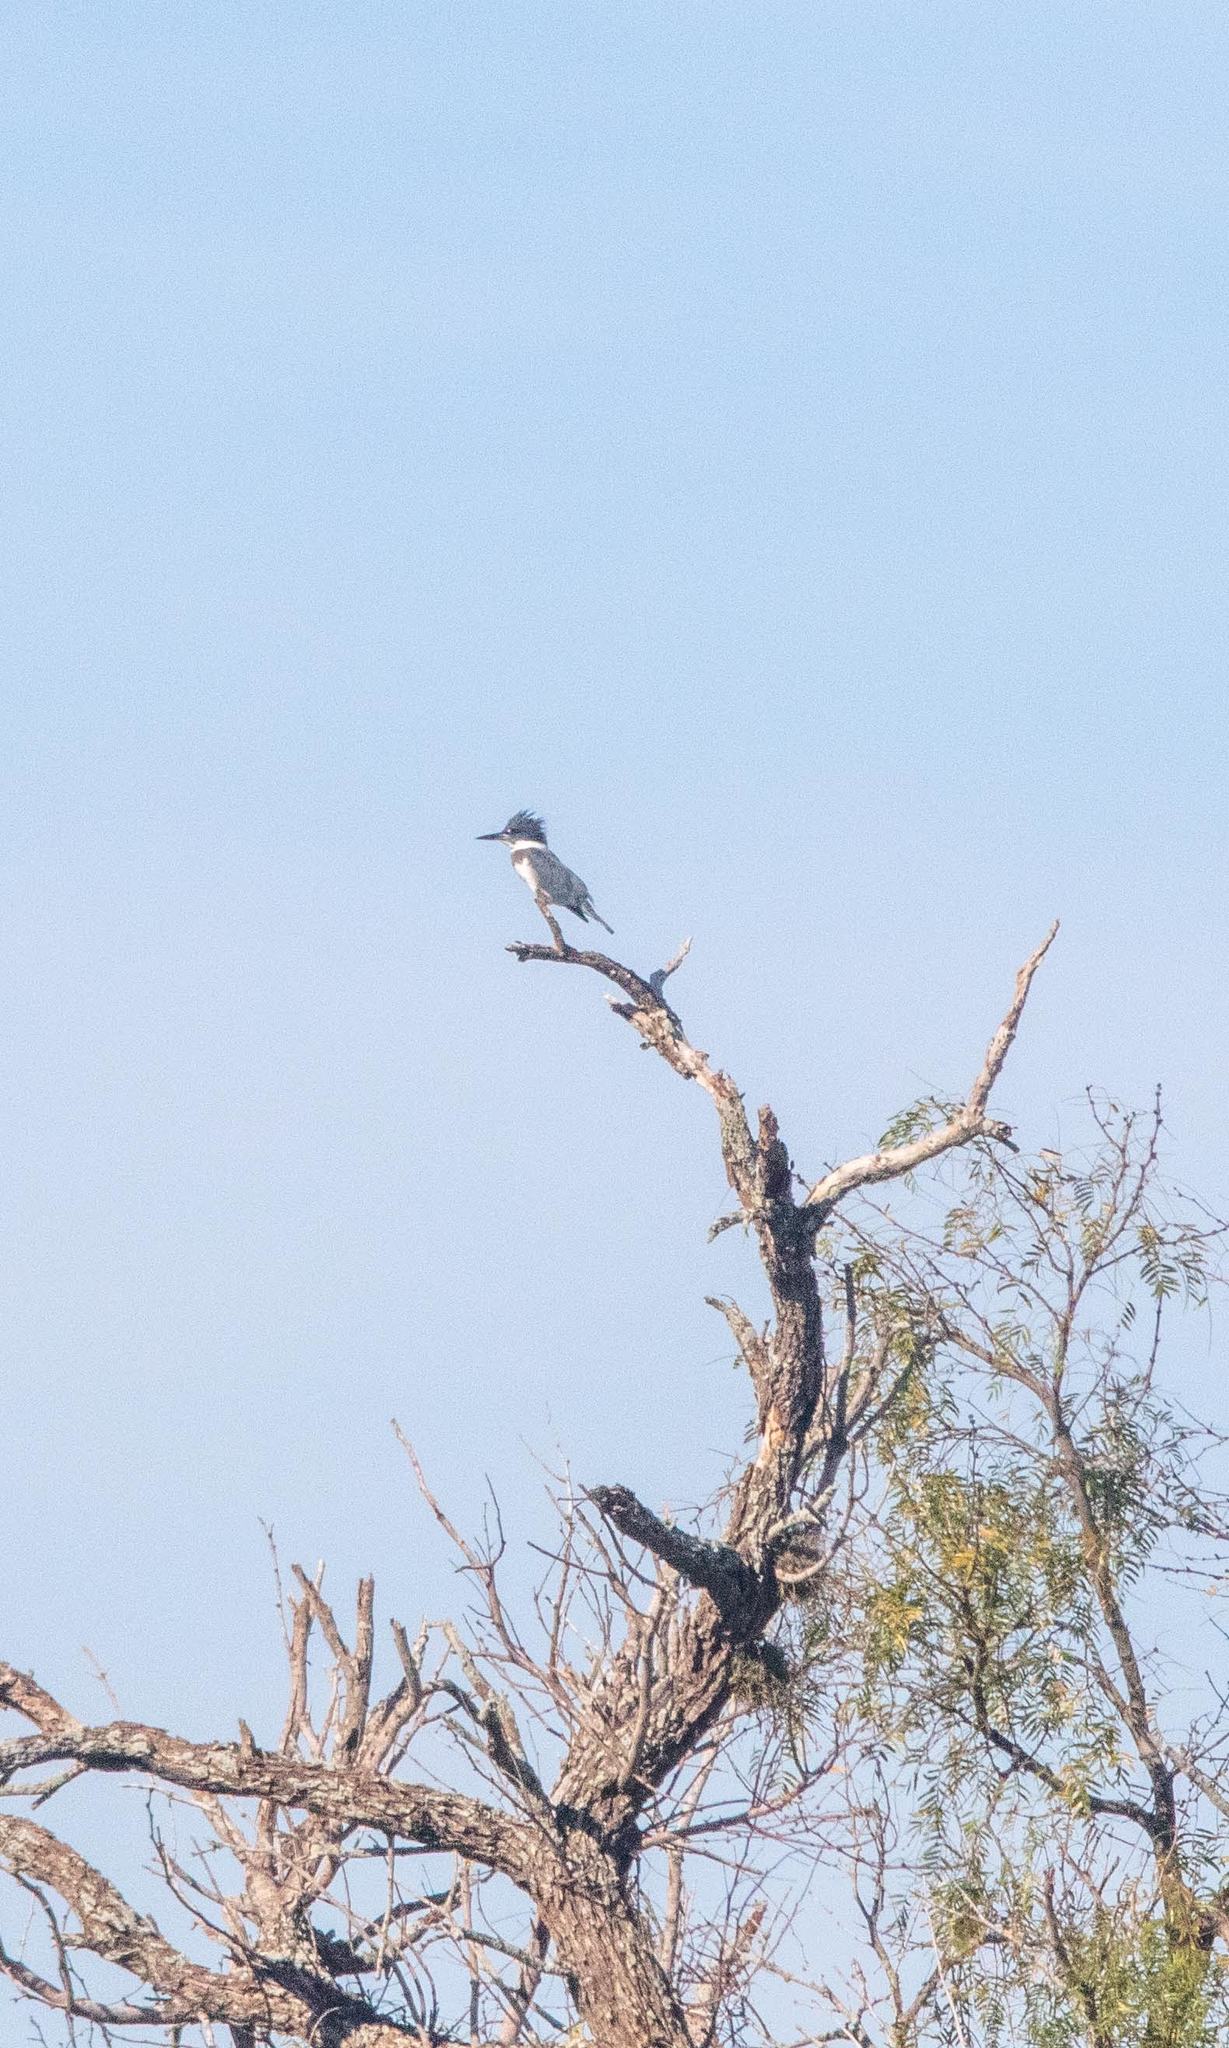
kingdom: Animalia
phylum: Chordata
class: Aves
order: Coraciiformes
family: Alcedinidae
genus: Megaceryle
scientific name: Megaceryle alcyon
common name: Belted kingfisher
